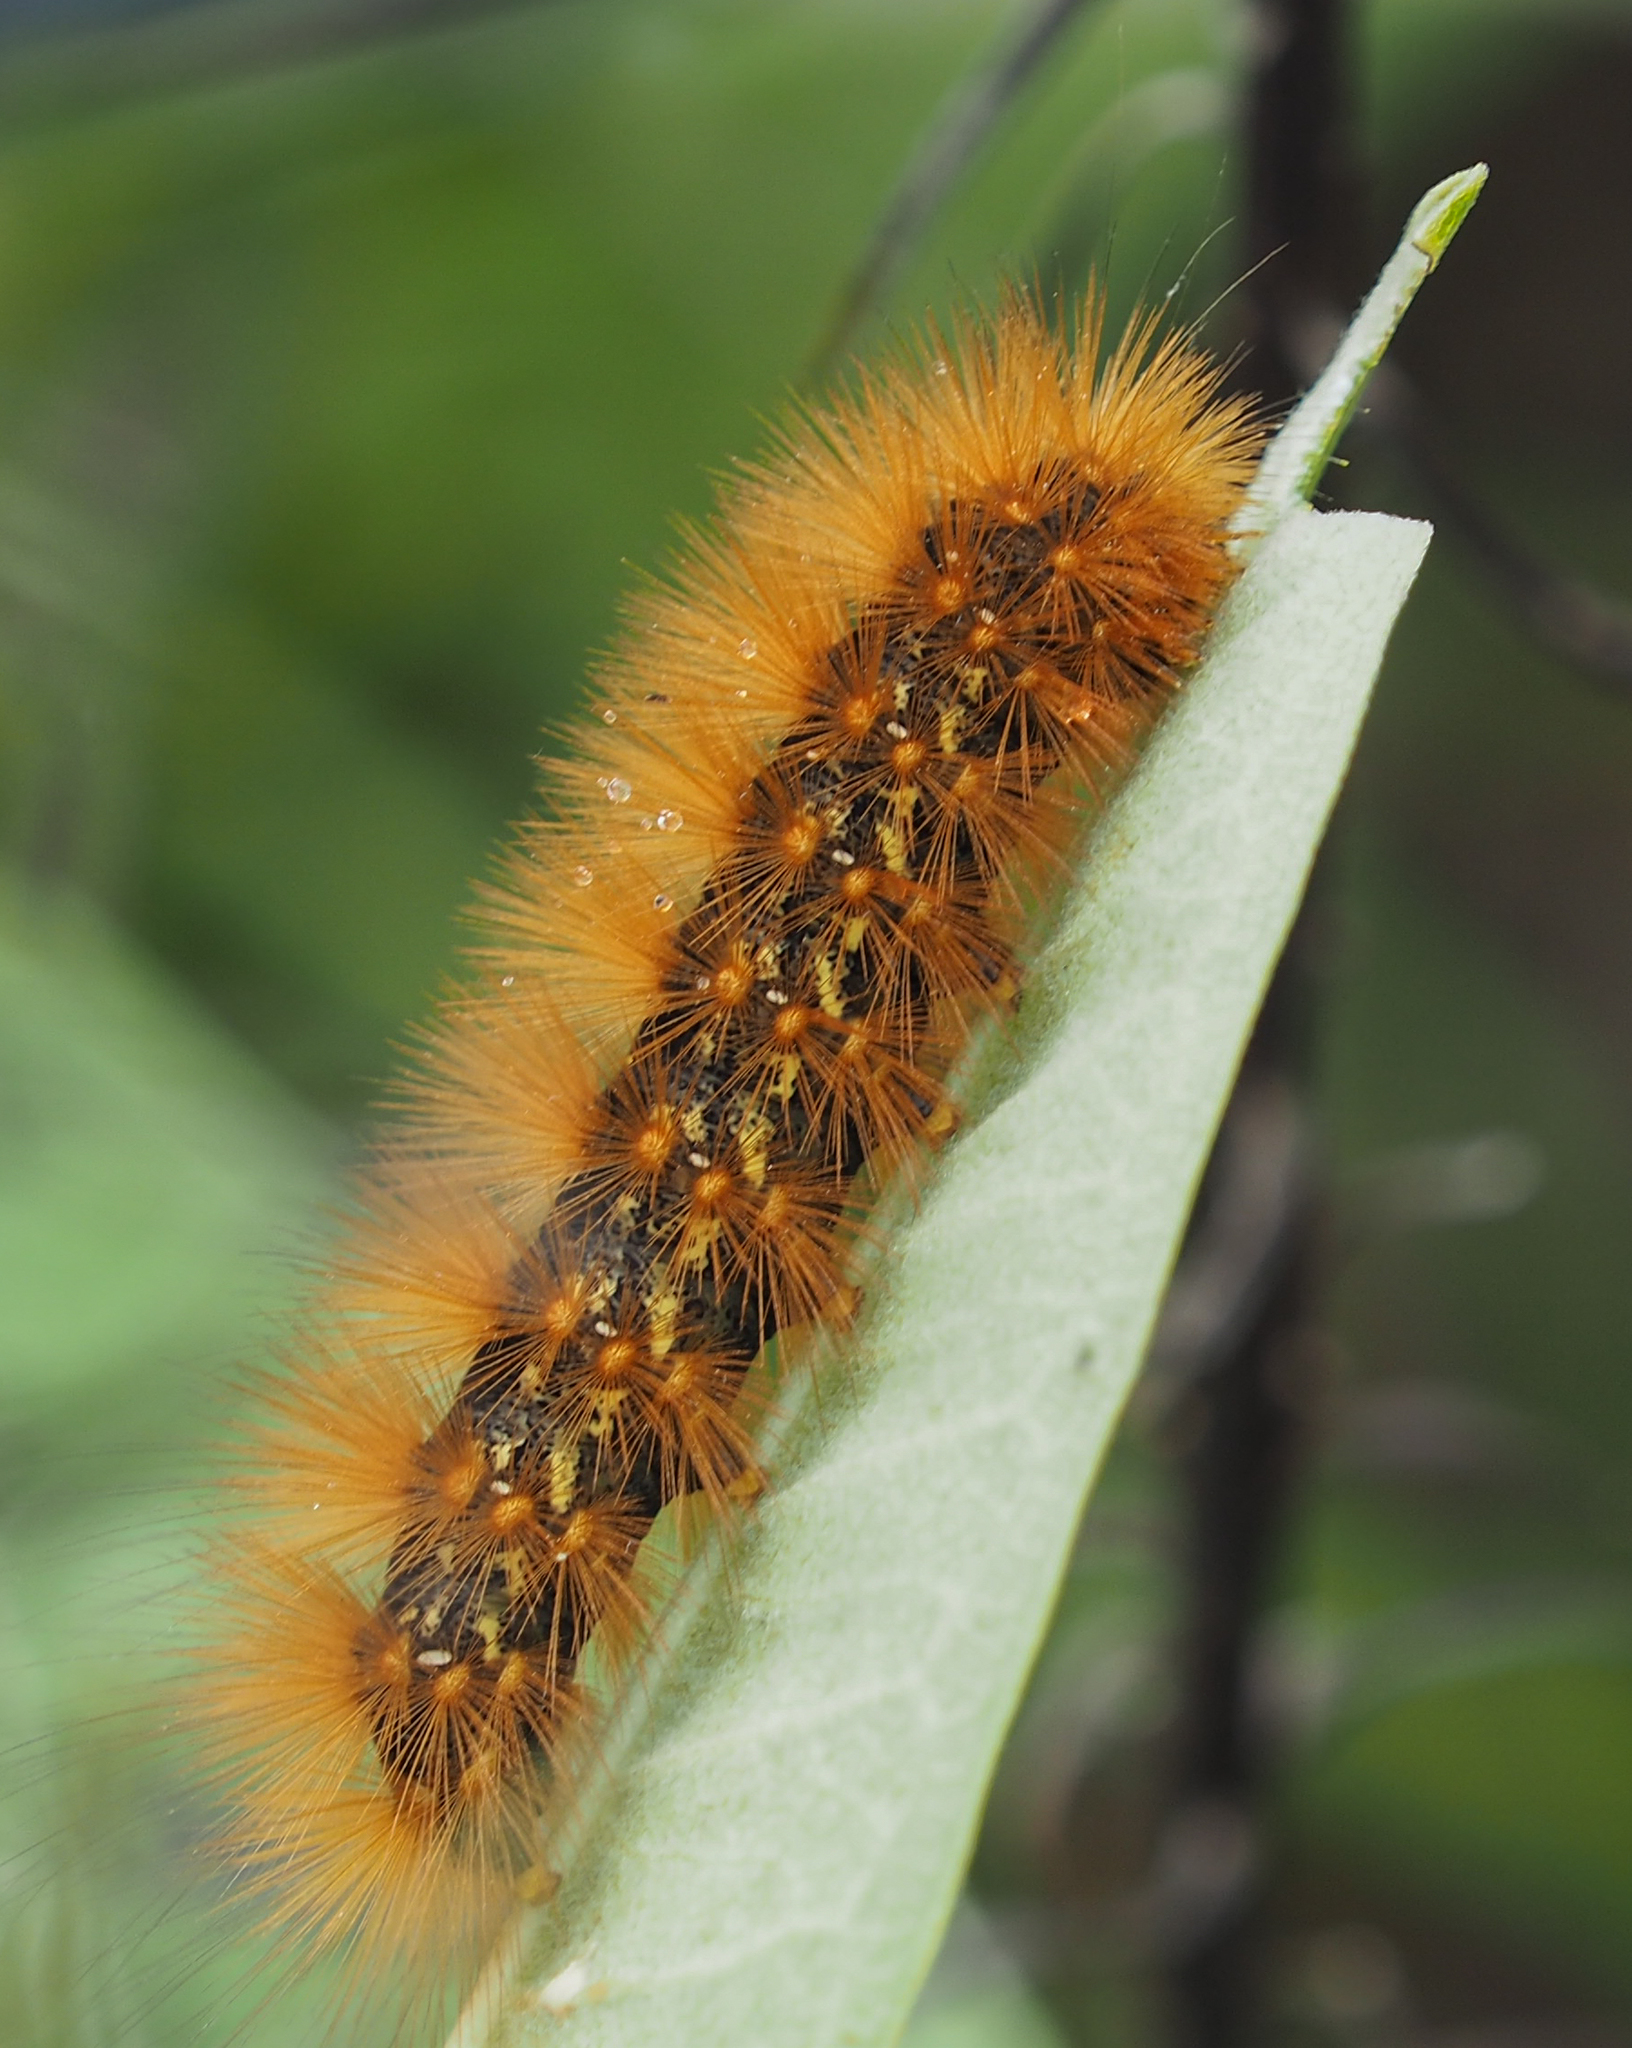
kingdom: Animalia
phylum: Arthropoda
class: Insecta
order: Lepidoptera
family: Erebidae
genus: Estigmene
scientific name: Estigmene acrea
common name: Salt marsh moth
